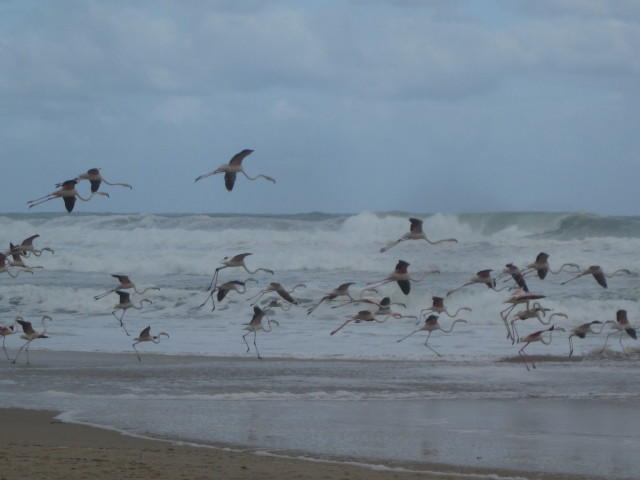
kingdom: Animalia
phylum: Chordata
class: Aves
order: Phoenicopteriformes
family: Phoenicopteridae
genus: Phoenicopterus
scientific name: Phoenicopterus roseus
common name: Greater flamingo
